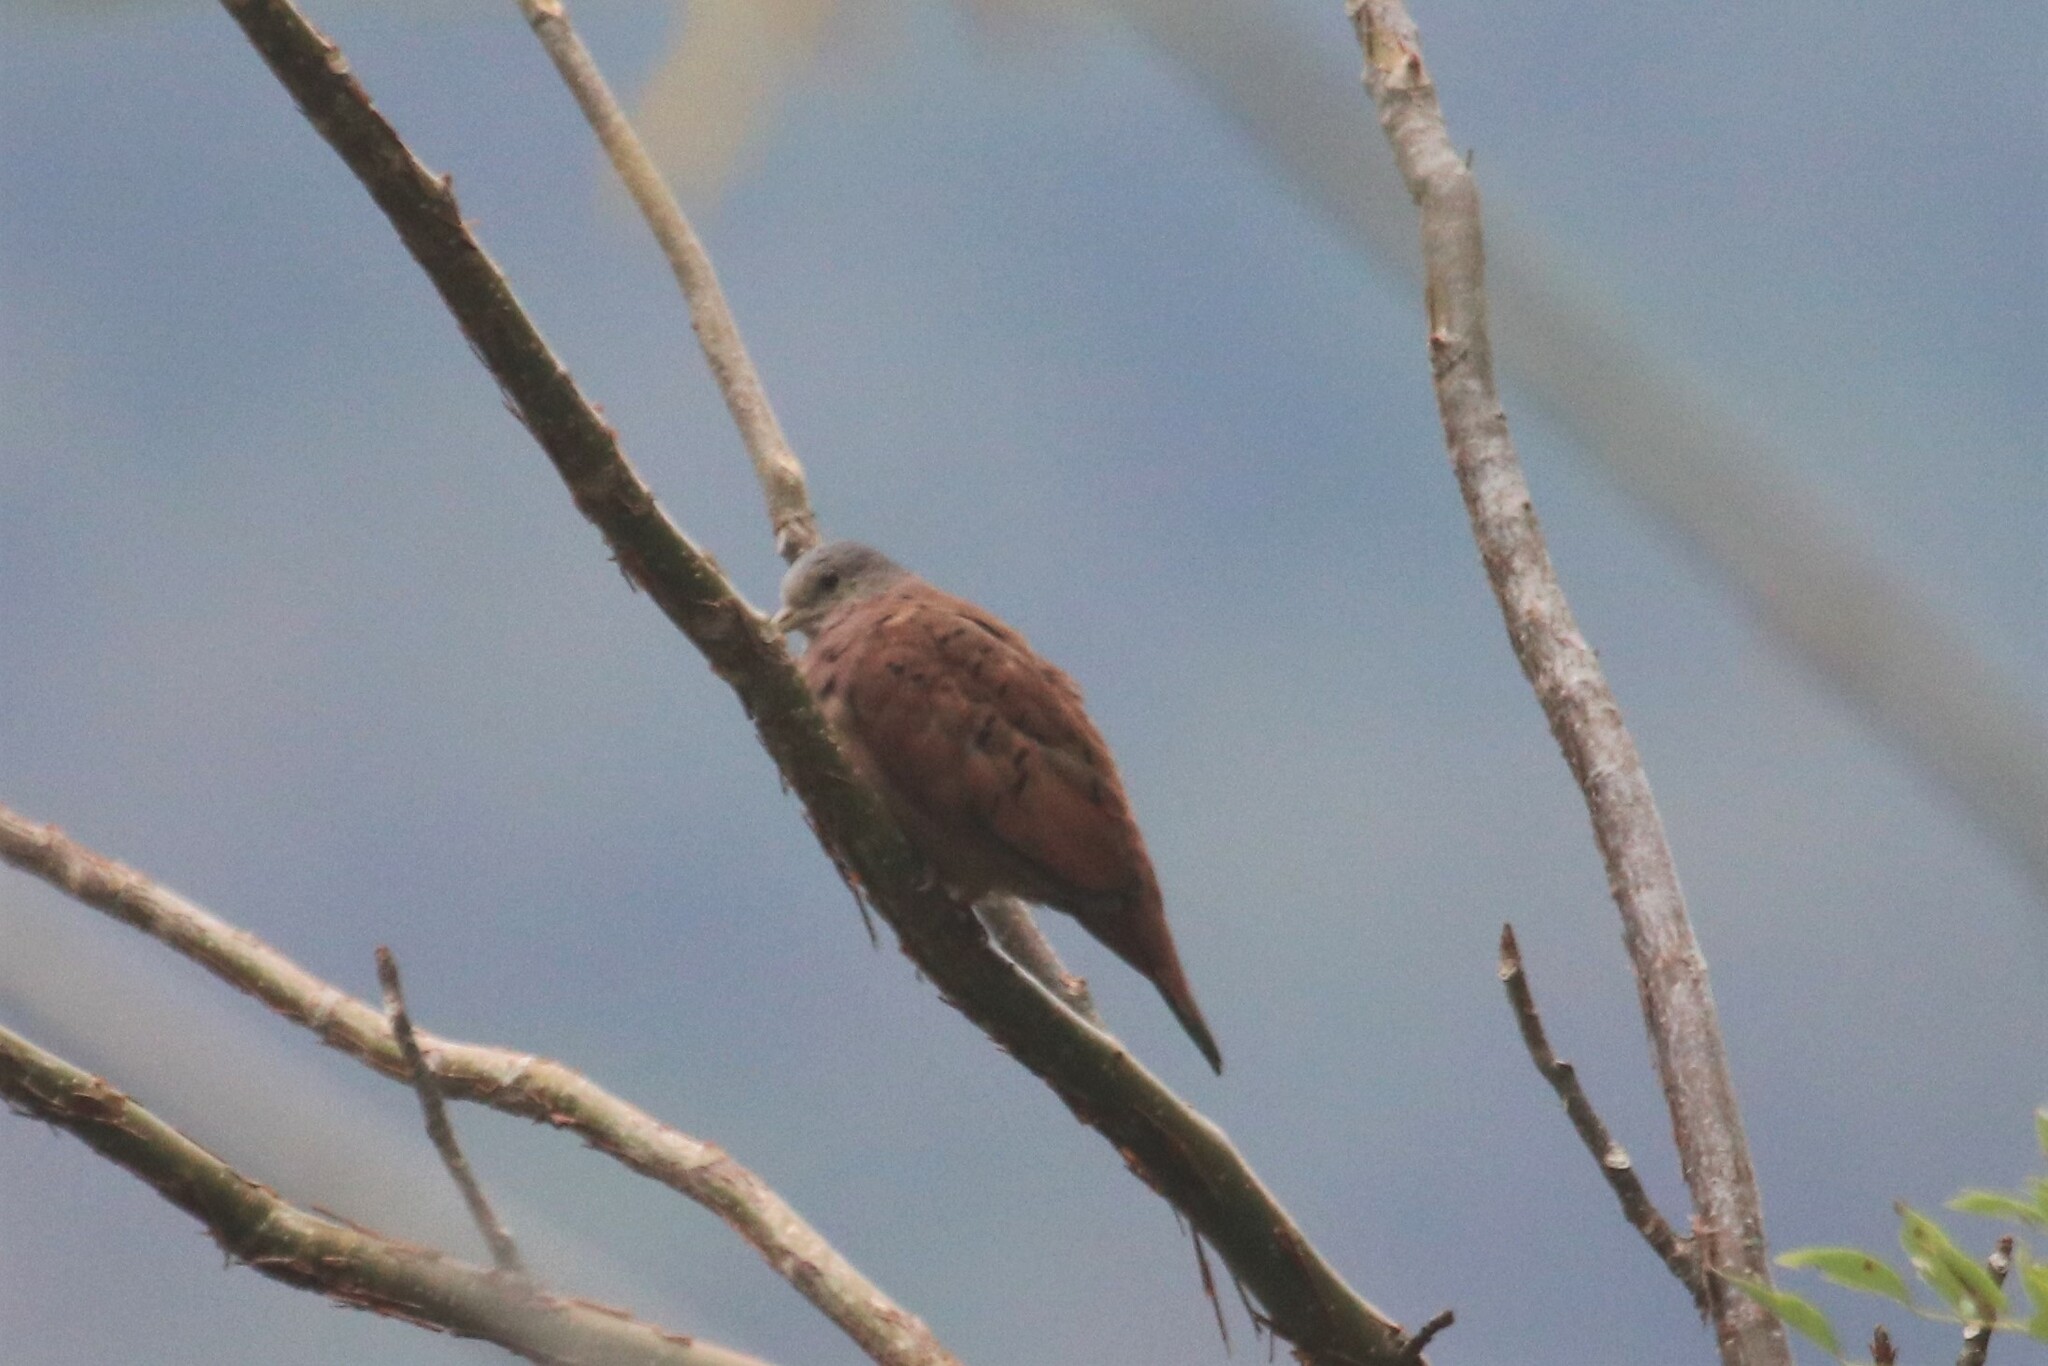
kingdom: Animalia
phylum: Chordata
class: Aves
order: Columbiformes
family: Columbidae
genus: Columbina
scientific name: Columbina talpacoti
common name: Ruddy ground dove
